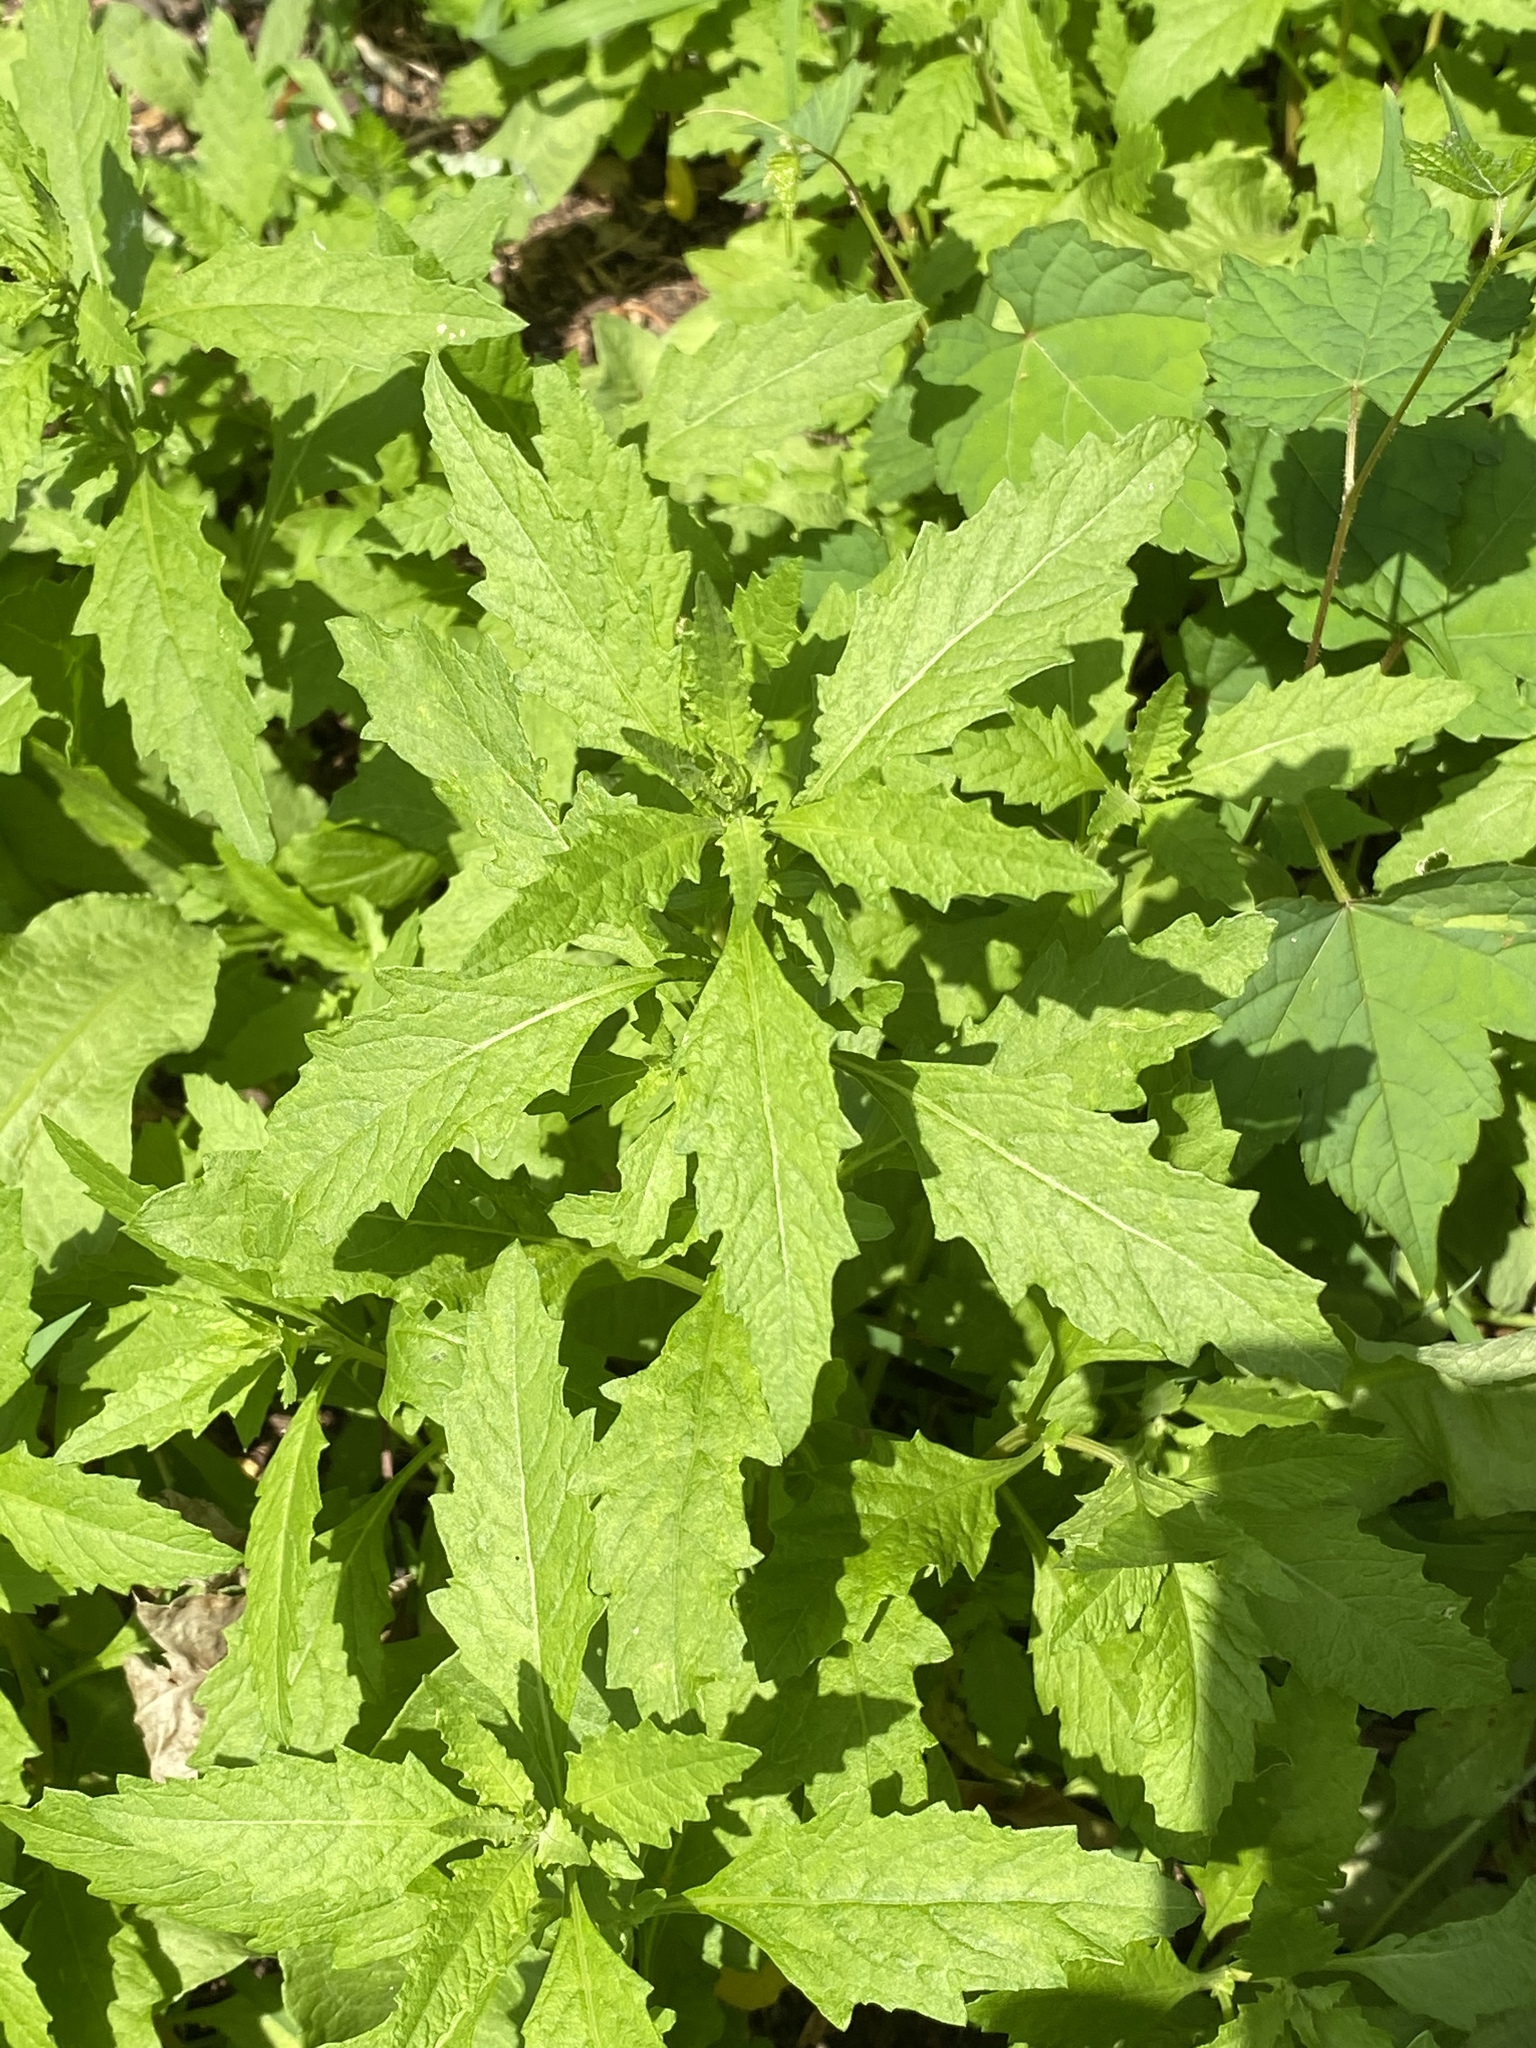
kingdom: Plantae
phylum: Tracheophyta
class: Magnoliopsida
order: Caryophyllales
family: Amaranthaceae
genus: Dysphania
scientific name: Dysphania ambrosioides
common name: Wormseed
